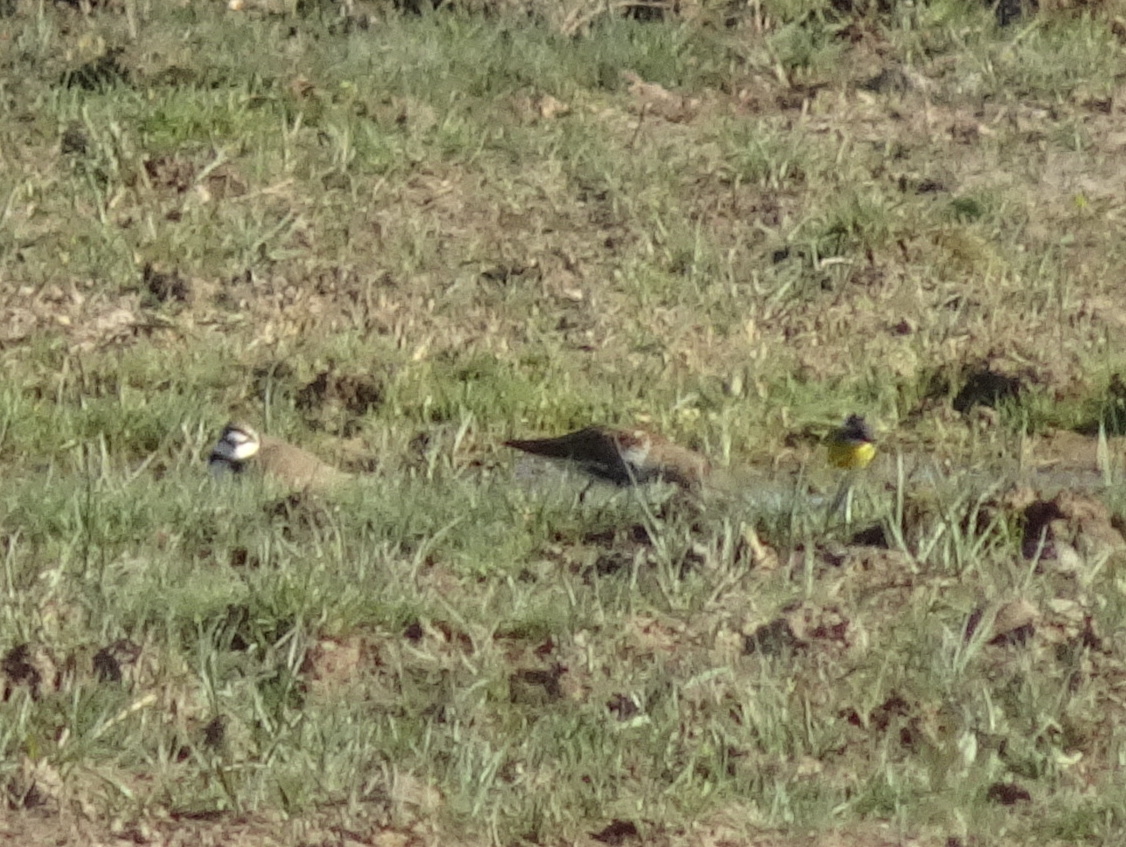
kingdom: Animalia
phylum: Chordata
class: Aves
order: Charadriiformes
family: Scolopacidae
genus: Calidris
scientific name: Calidris alpina
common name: Dunlin
